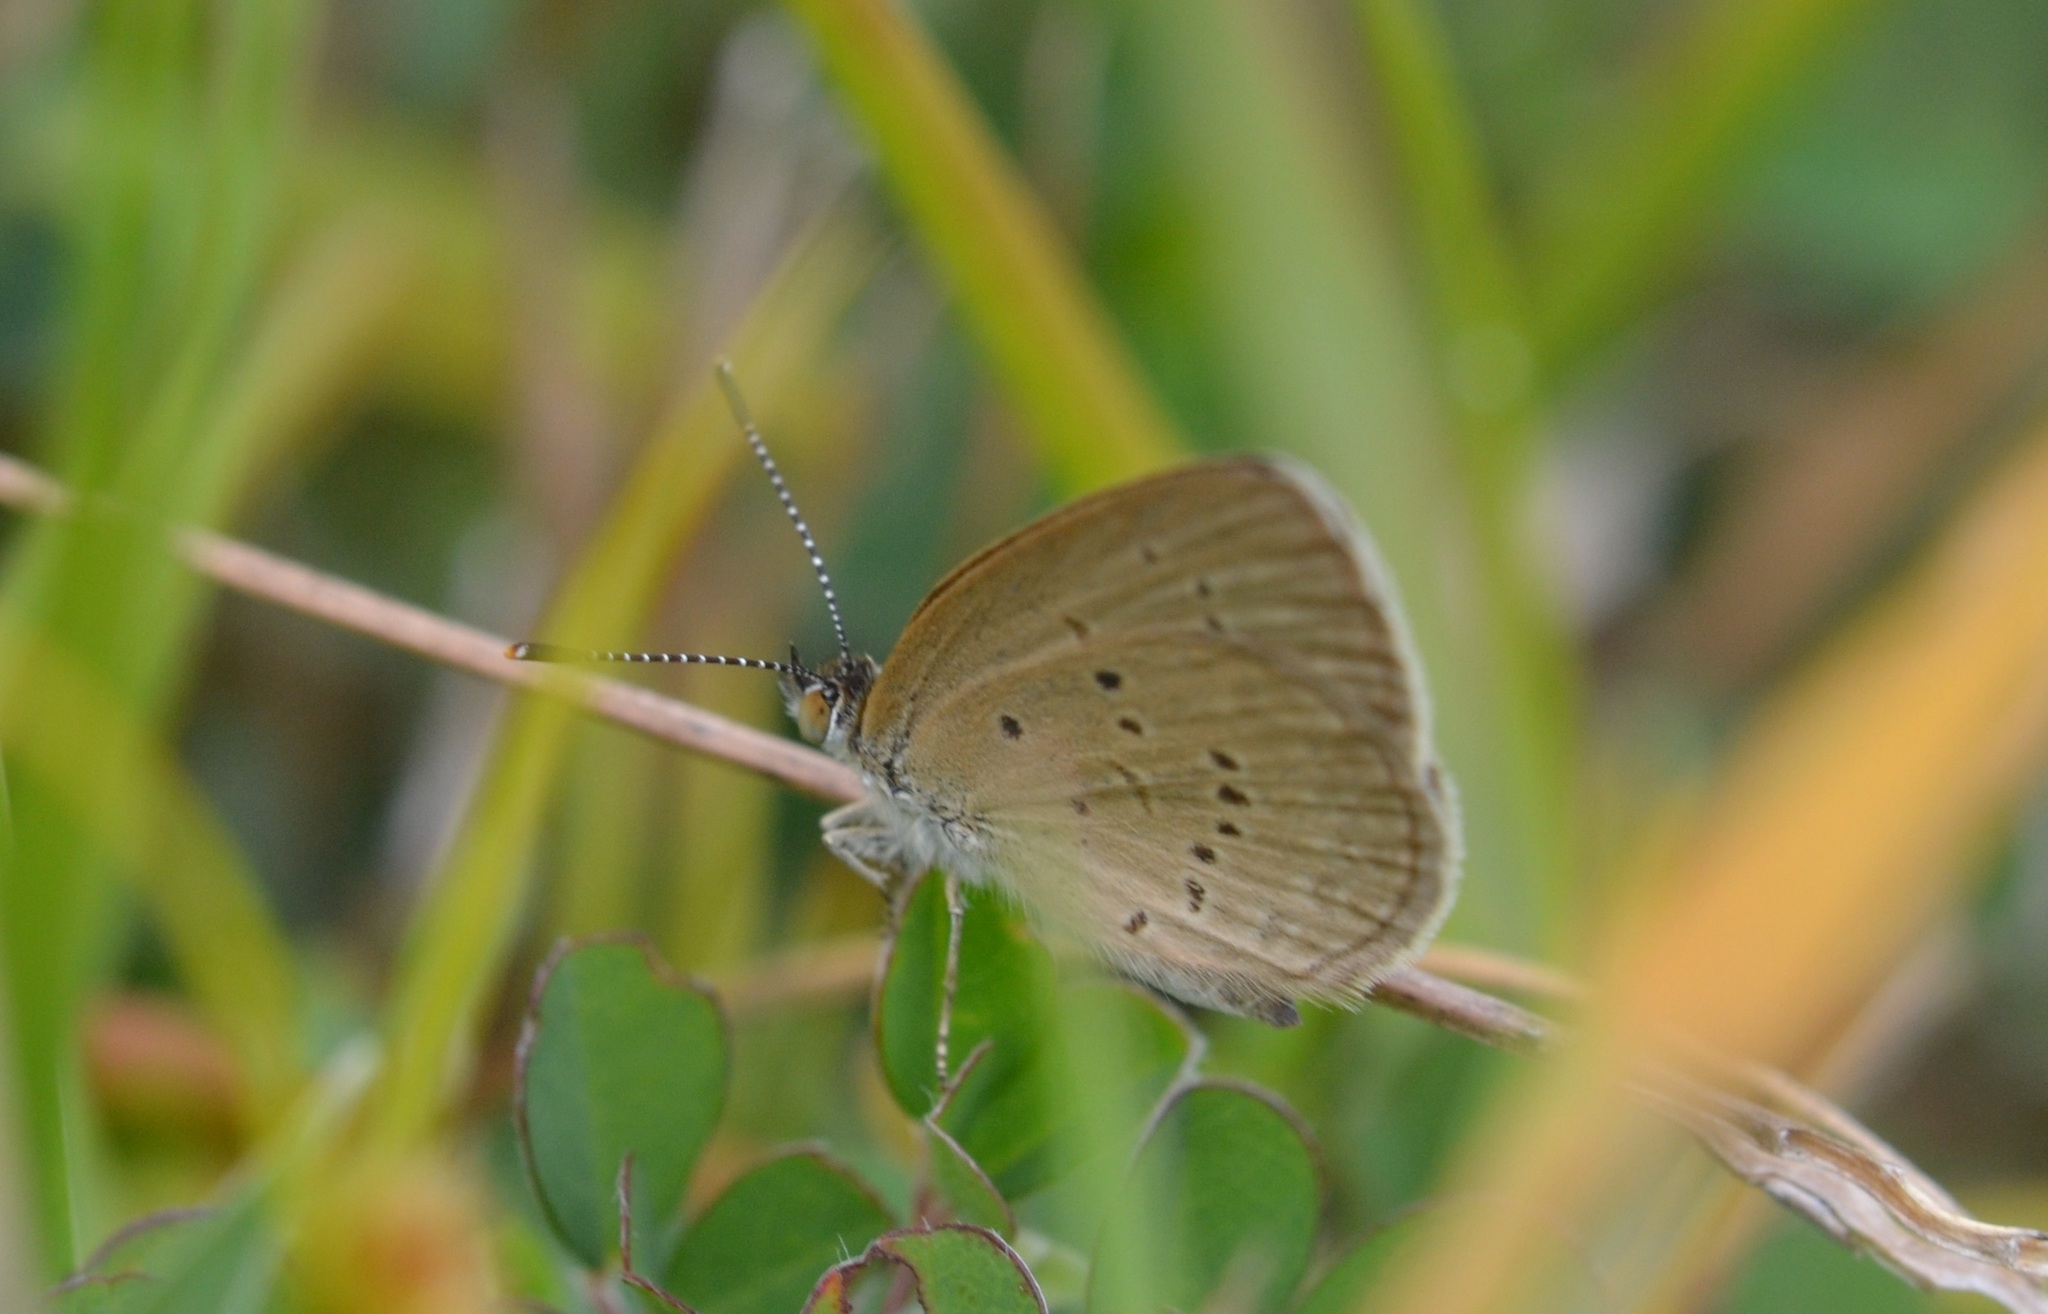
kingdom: Animalia
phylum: Arthropoda
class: Insecta
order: Lepidoptera
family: Lycaenidae
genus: Zizina
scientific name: Zizina otis
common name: Lesser grass blue
